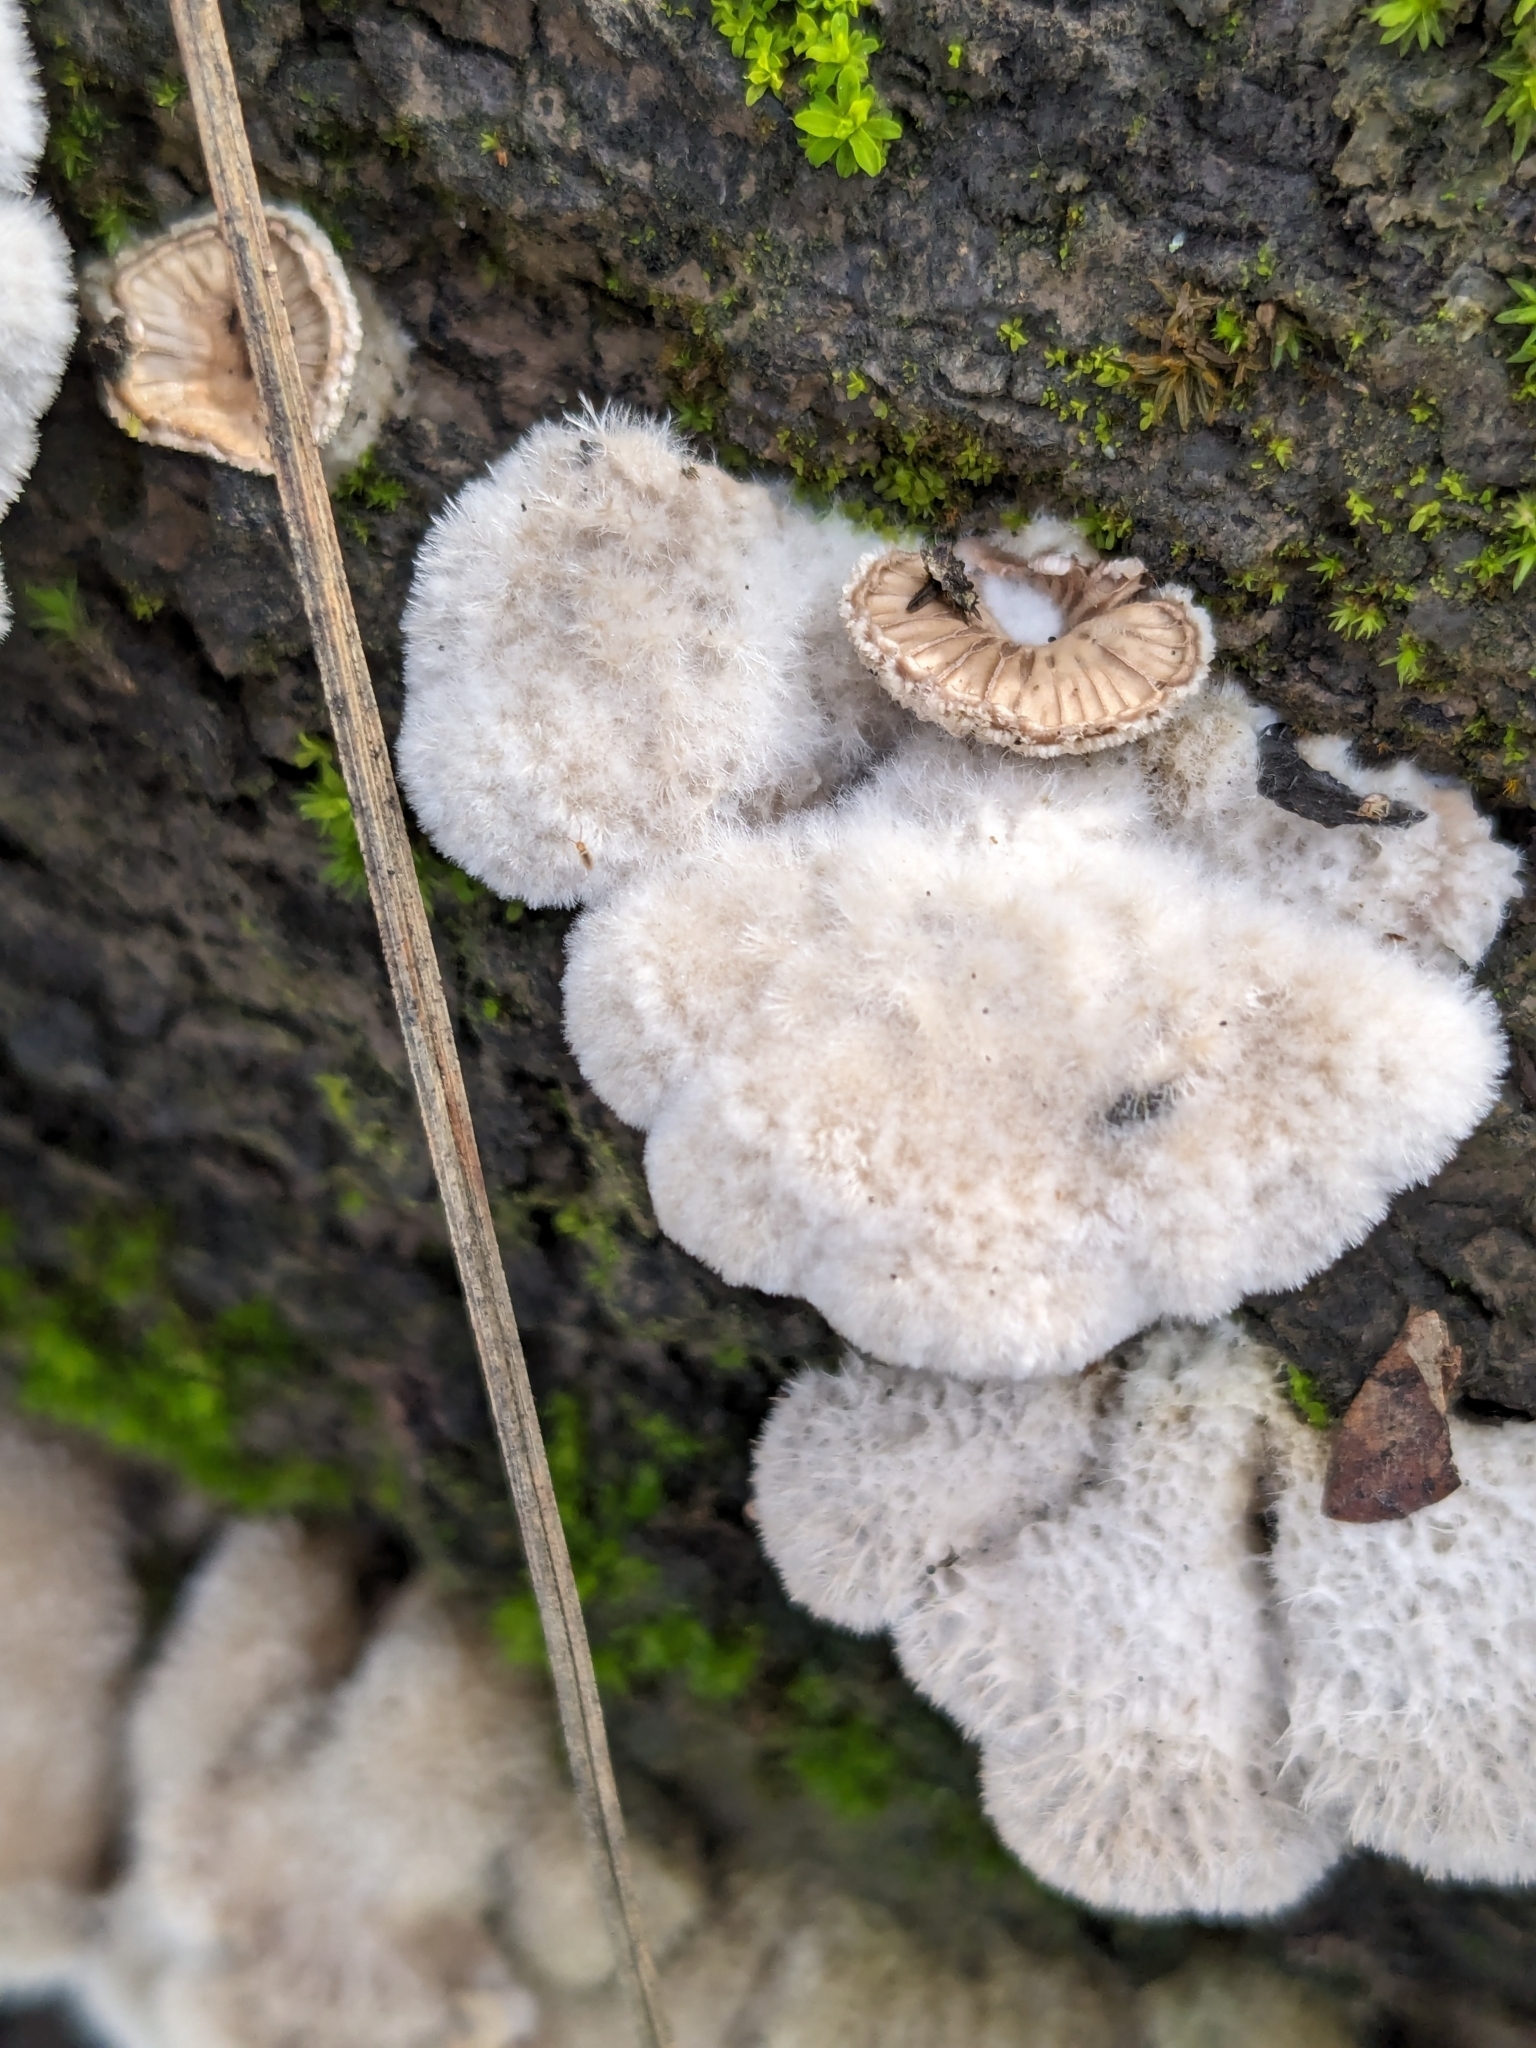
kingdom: Fungi
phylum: Basidiomycota
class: Agaricomycetes
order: Agaricales
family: Schizophyllaceae
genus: Schizophyllum
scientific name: Schizophyllum commune
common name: Common porecrust
